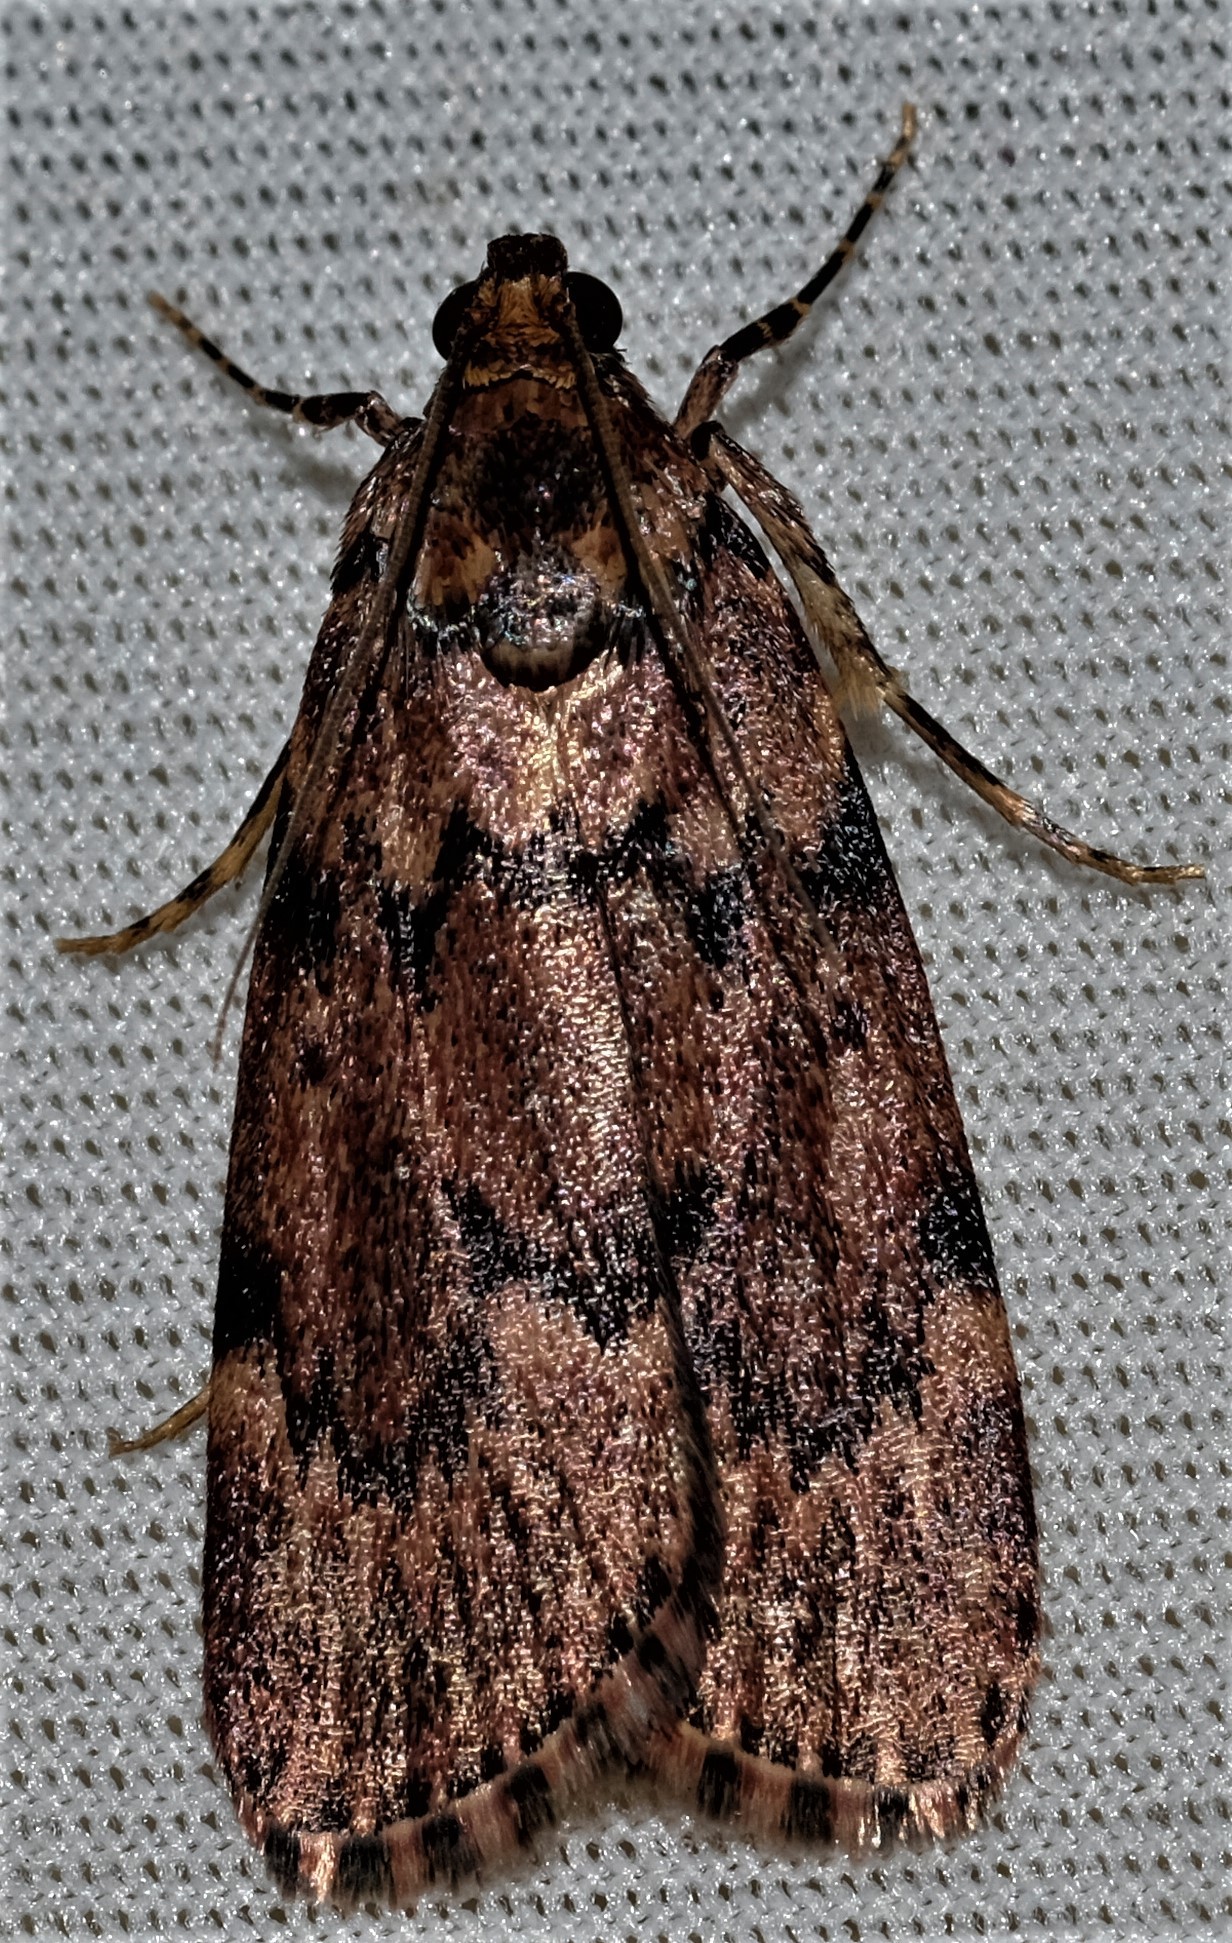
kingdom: Animalia
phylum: Arthropoda
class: Insecta
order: Lepidoptera
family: Pyralidae
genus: Mimaglossa
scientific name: Mimaglossa nauplialis
